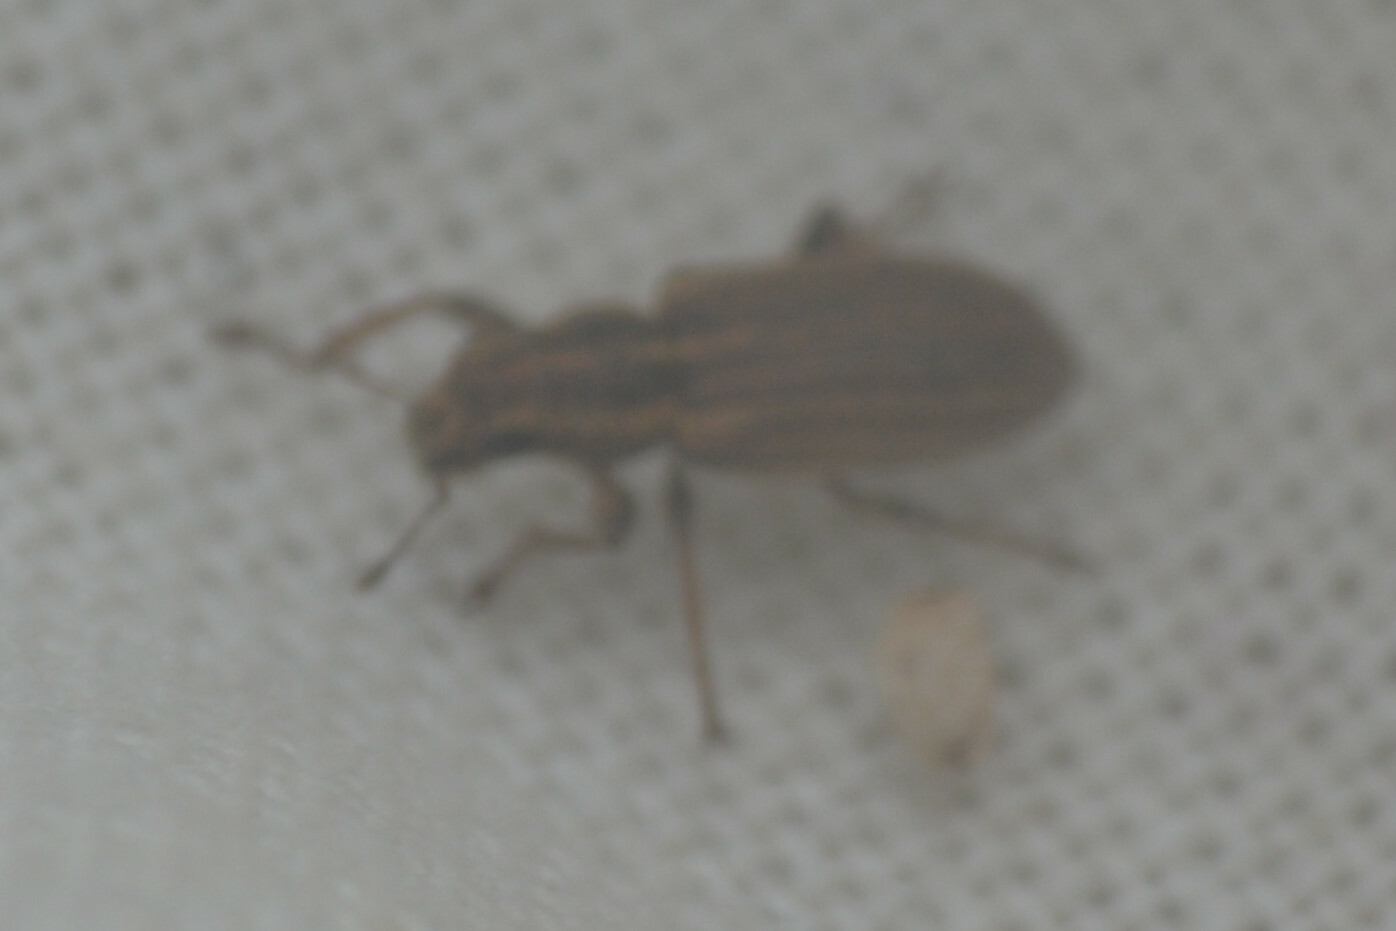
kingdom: Animalia
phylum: Arthropoda
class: Insecta
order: Coleoptera
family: Curculionidae
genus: Sitona
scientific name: Sitona lineatus
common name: Weevil
